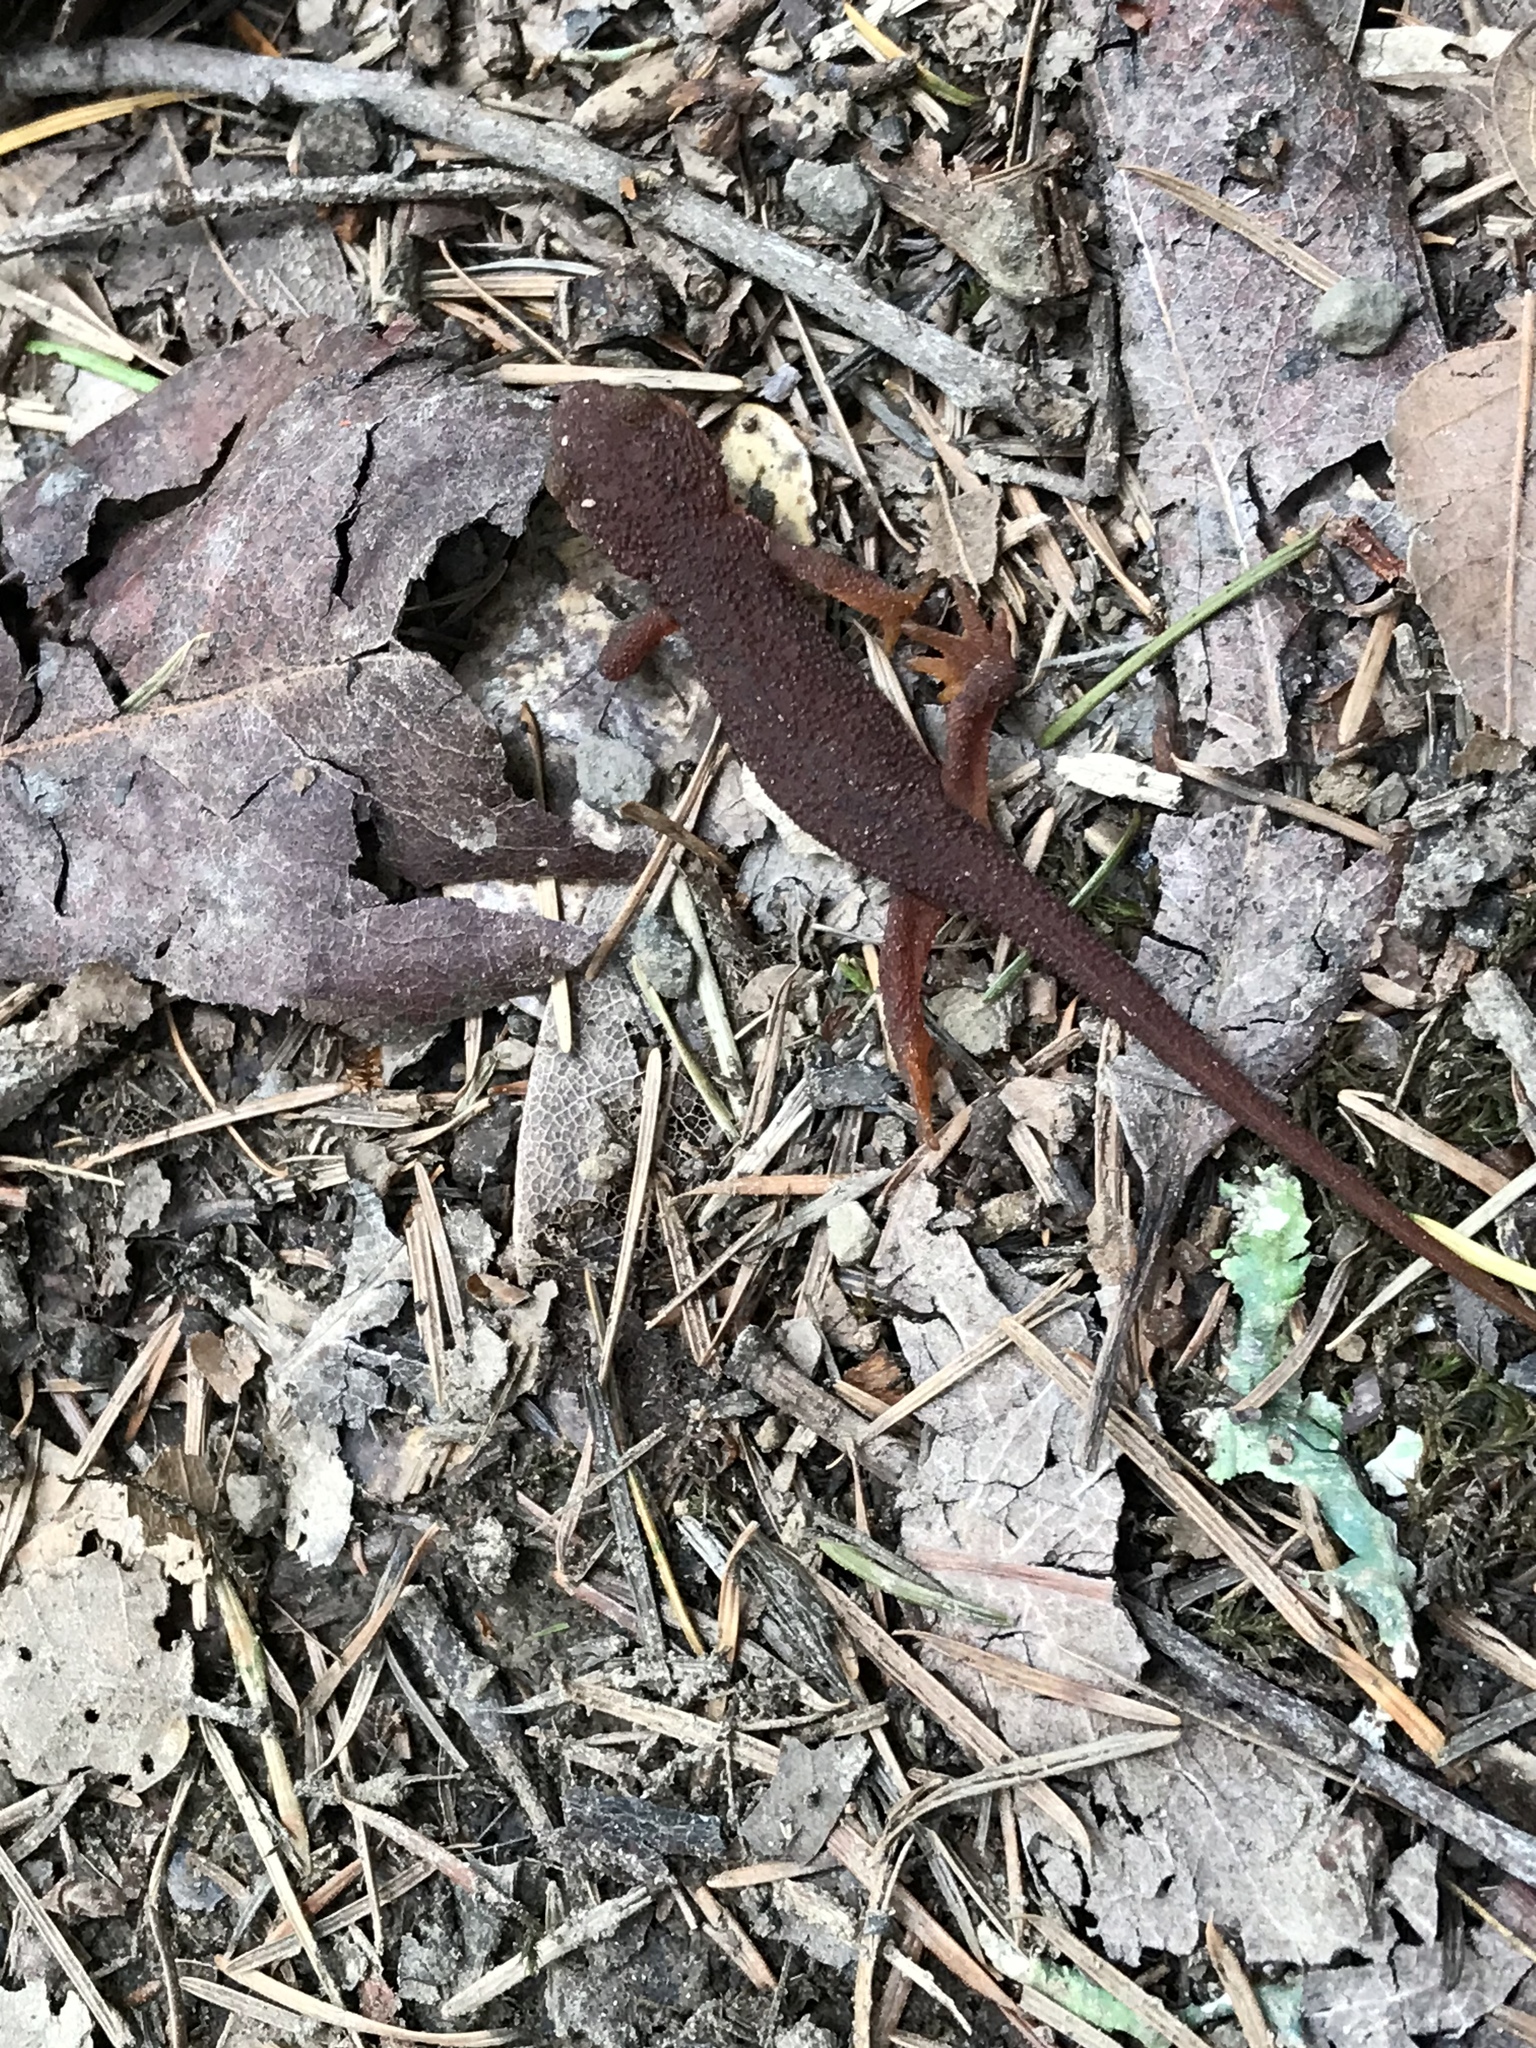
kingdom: Animalia
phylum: Chordata
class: Amphibia
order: Caudata
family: Salamandridae
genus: Taricha
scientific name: Taricha granulosa
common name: Roughskin newt
